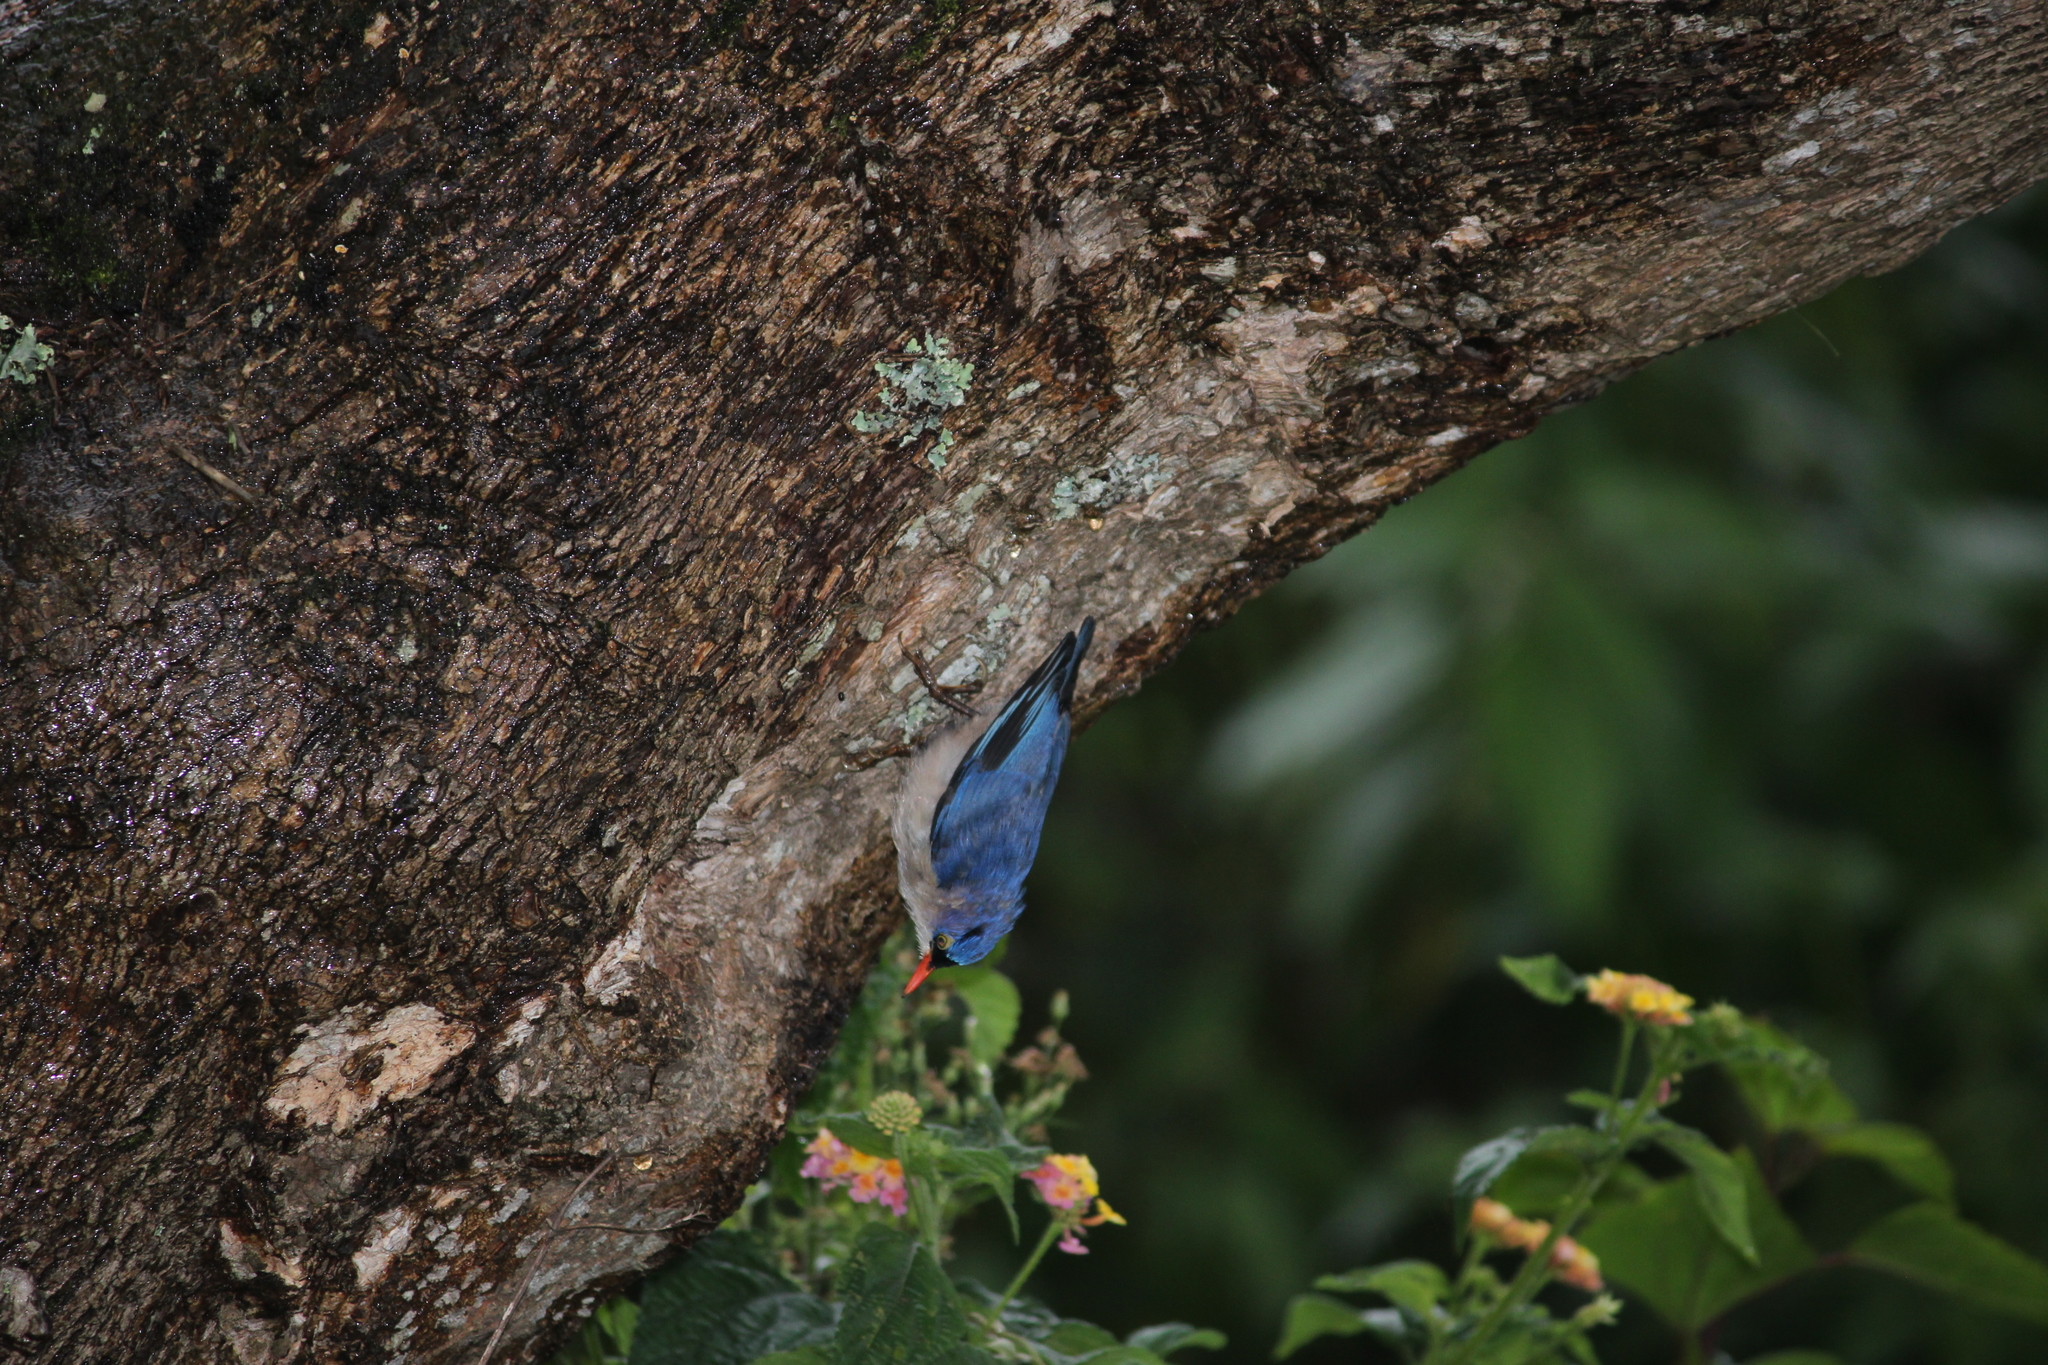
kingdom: Animalia
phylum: Chordata
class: Aves
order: Passeriformes
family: Sittidae
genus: Sitta
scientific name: Sitta frontalis
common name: Velvet-fronted nuthatch
